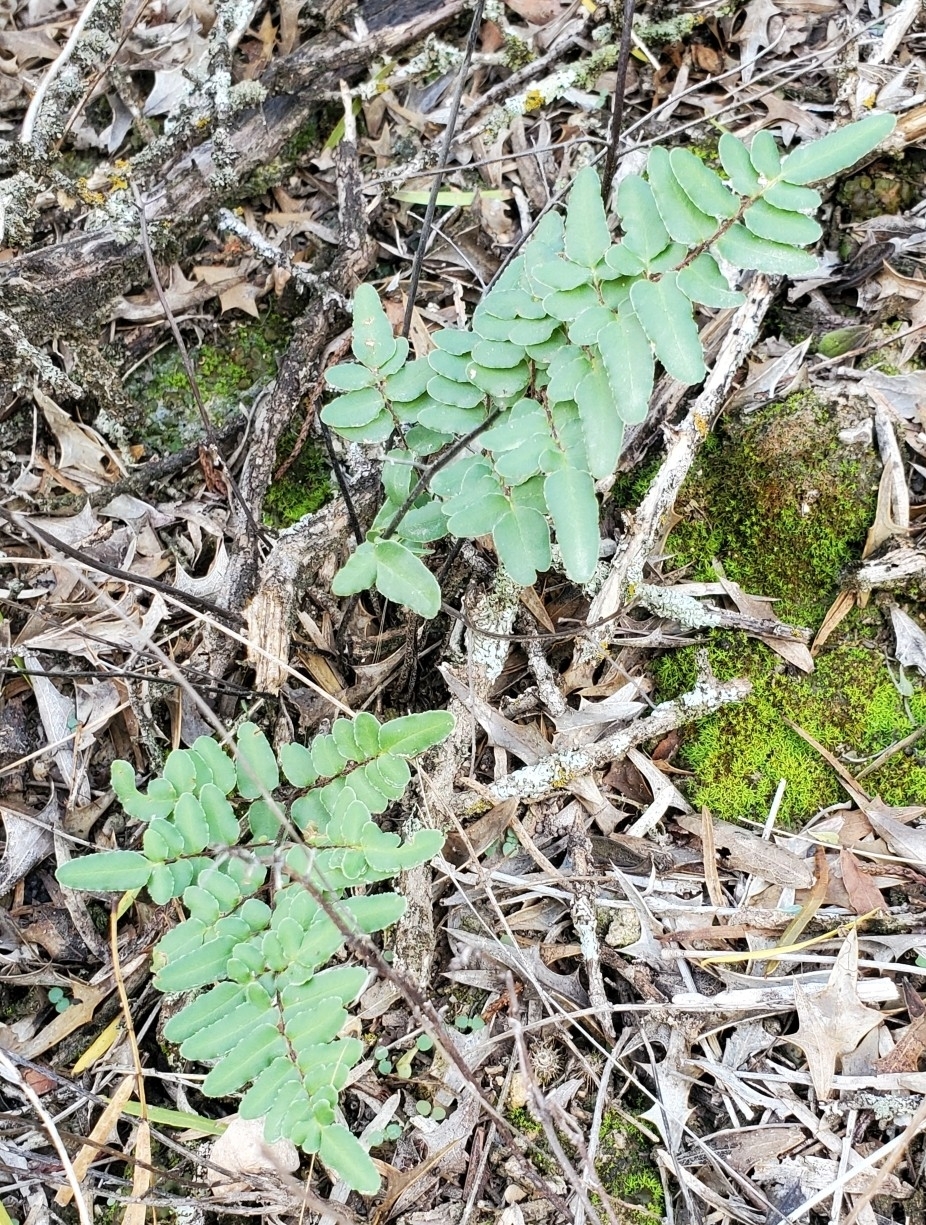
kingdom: Plantae
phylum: Tracheophyta
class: Polypodiopsida
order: Polypodiales
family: Pteridaceae
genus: Pellaea
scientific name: Pellaea atropurpurea
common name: Hairy cliffbrake
